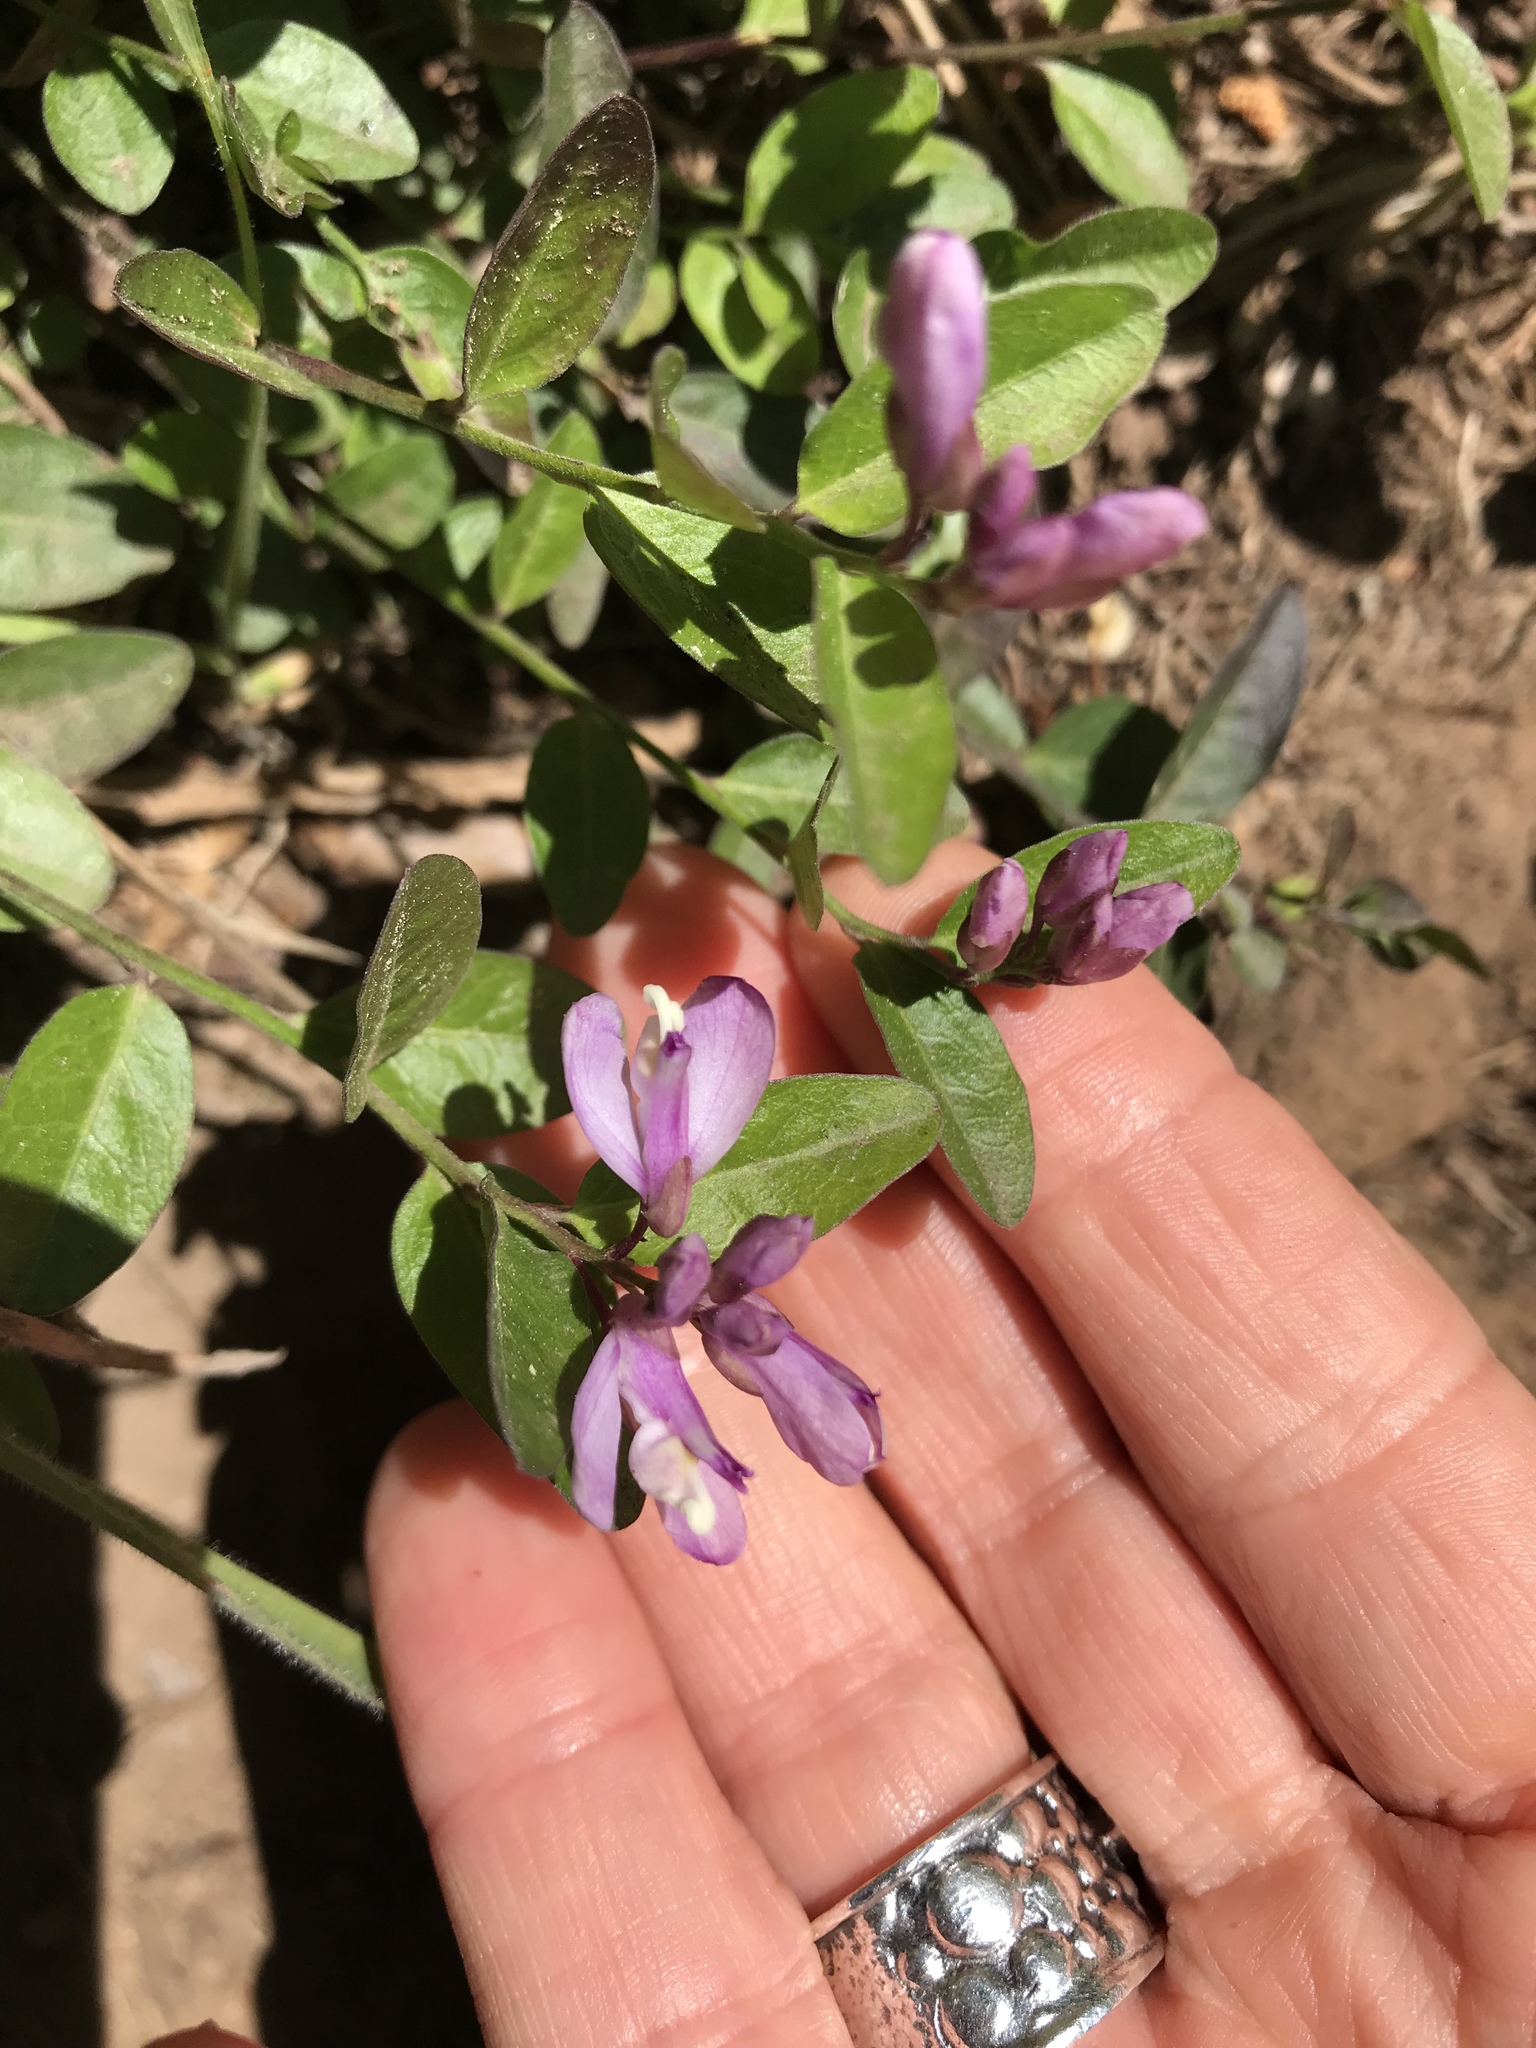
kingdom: Plantae
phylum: Tracheophyta
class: Magnoliopsida
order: Fabales
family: Polygalaceae
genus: Rhinotropis
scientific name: Rhinotropis californica
